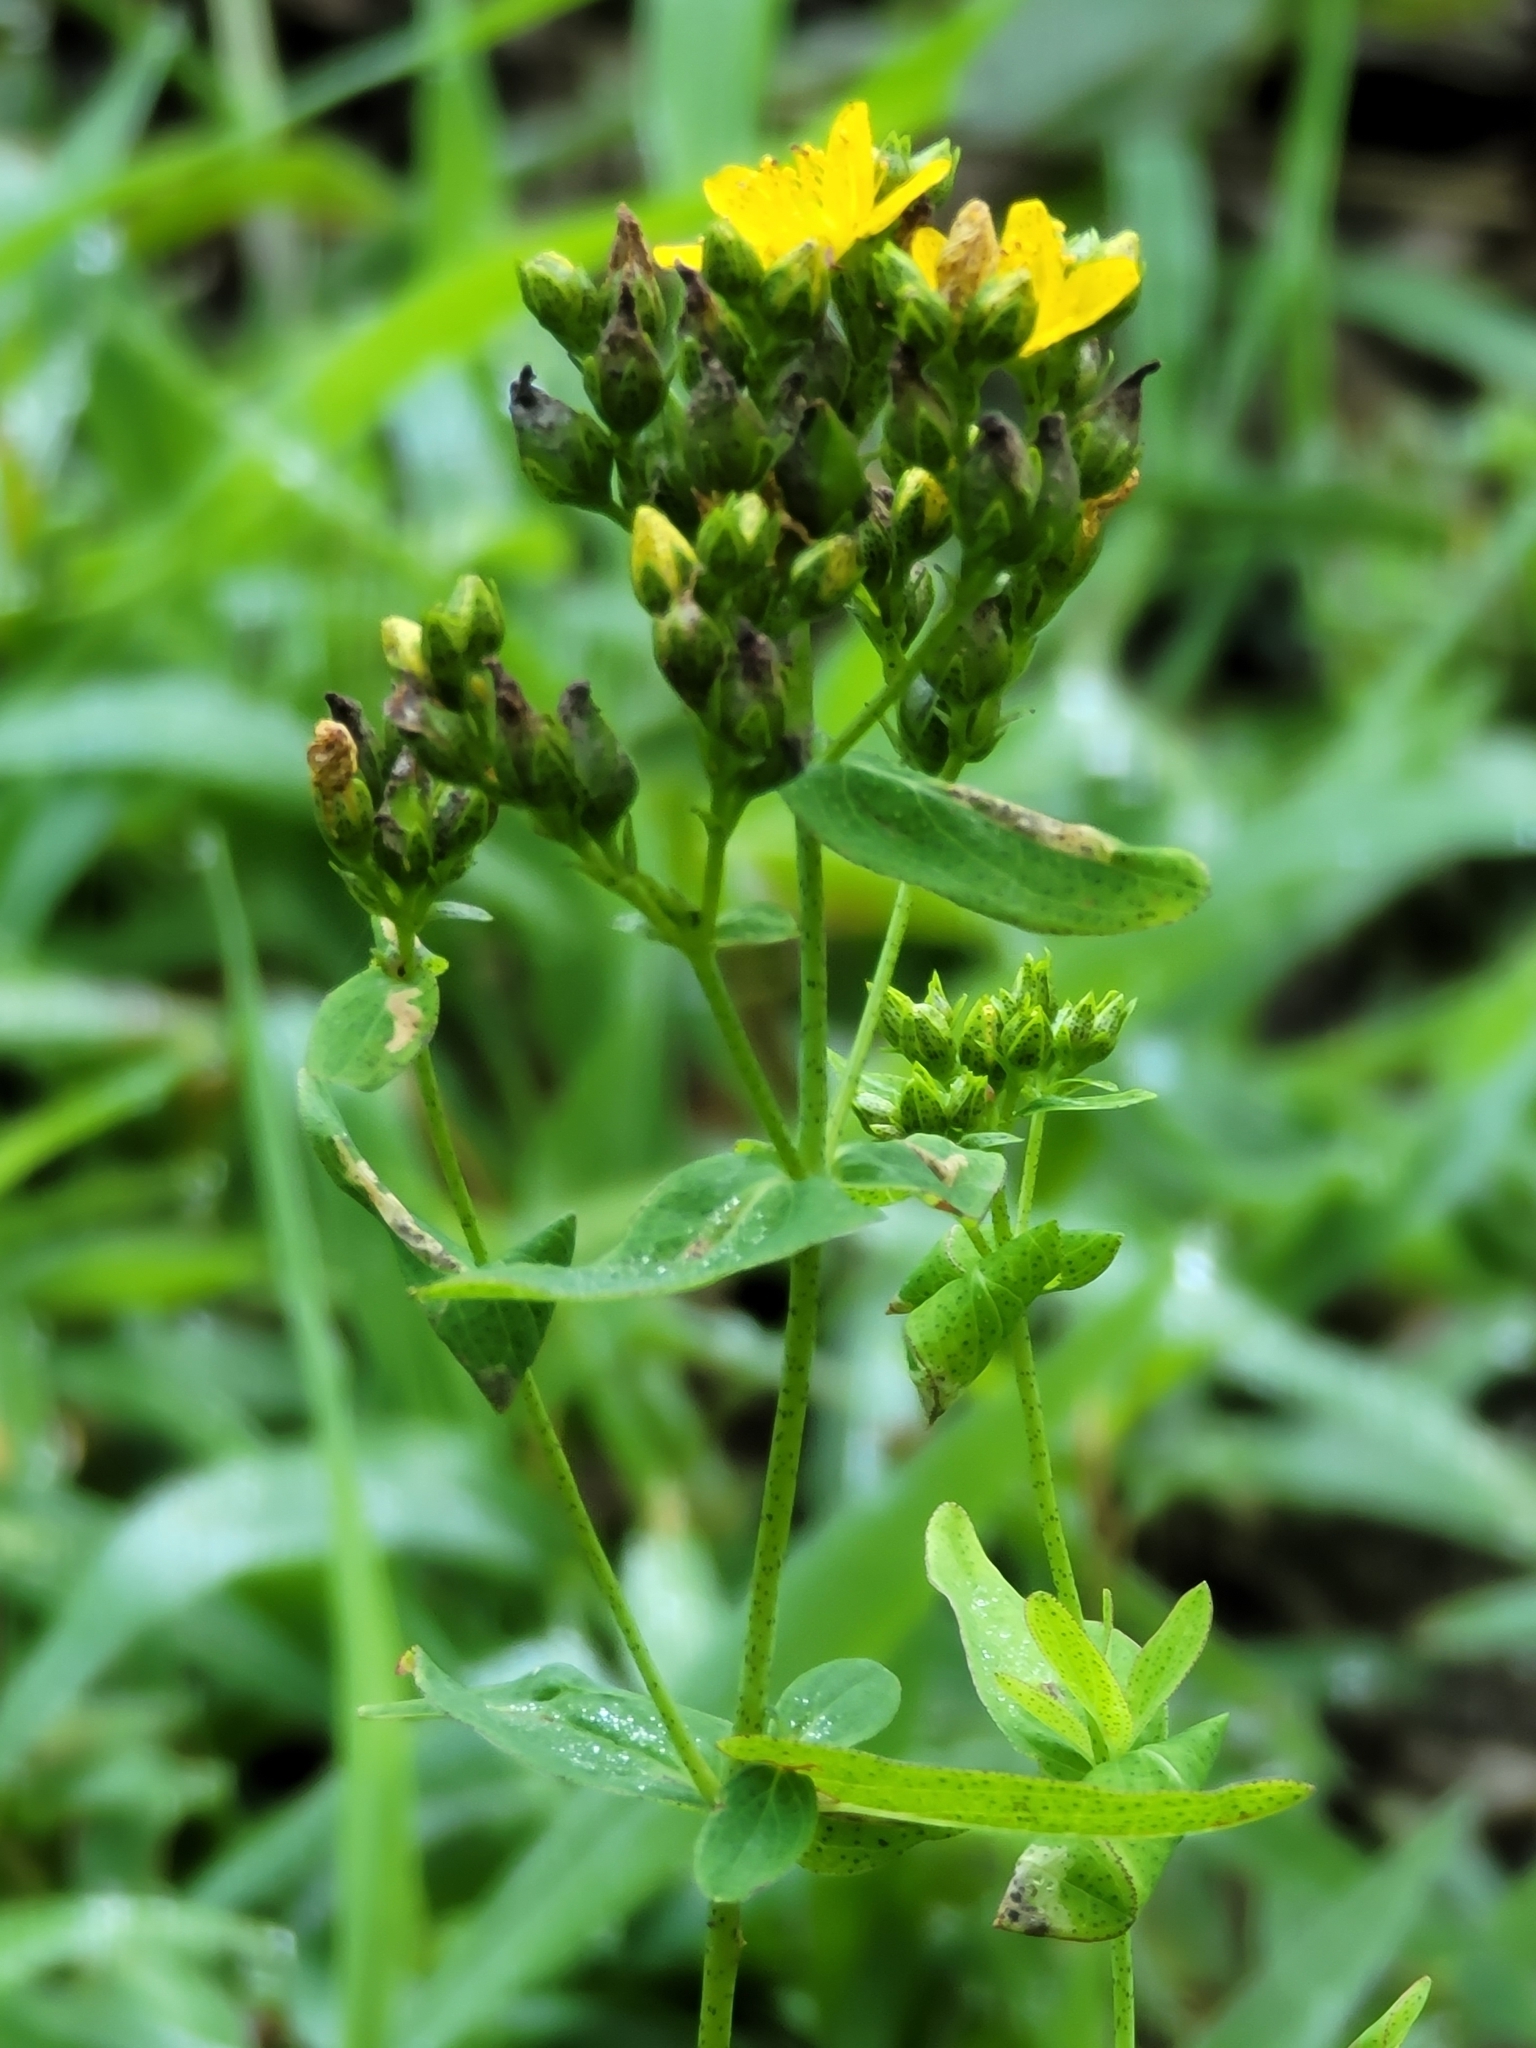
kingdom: Plantae
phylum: Tracheophyta
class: Magnoliopsida
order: Malpighiales
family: Hypericaceae
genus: Hypericum
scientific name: Hypericum punctatum
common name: Spotted st. john's-wort
